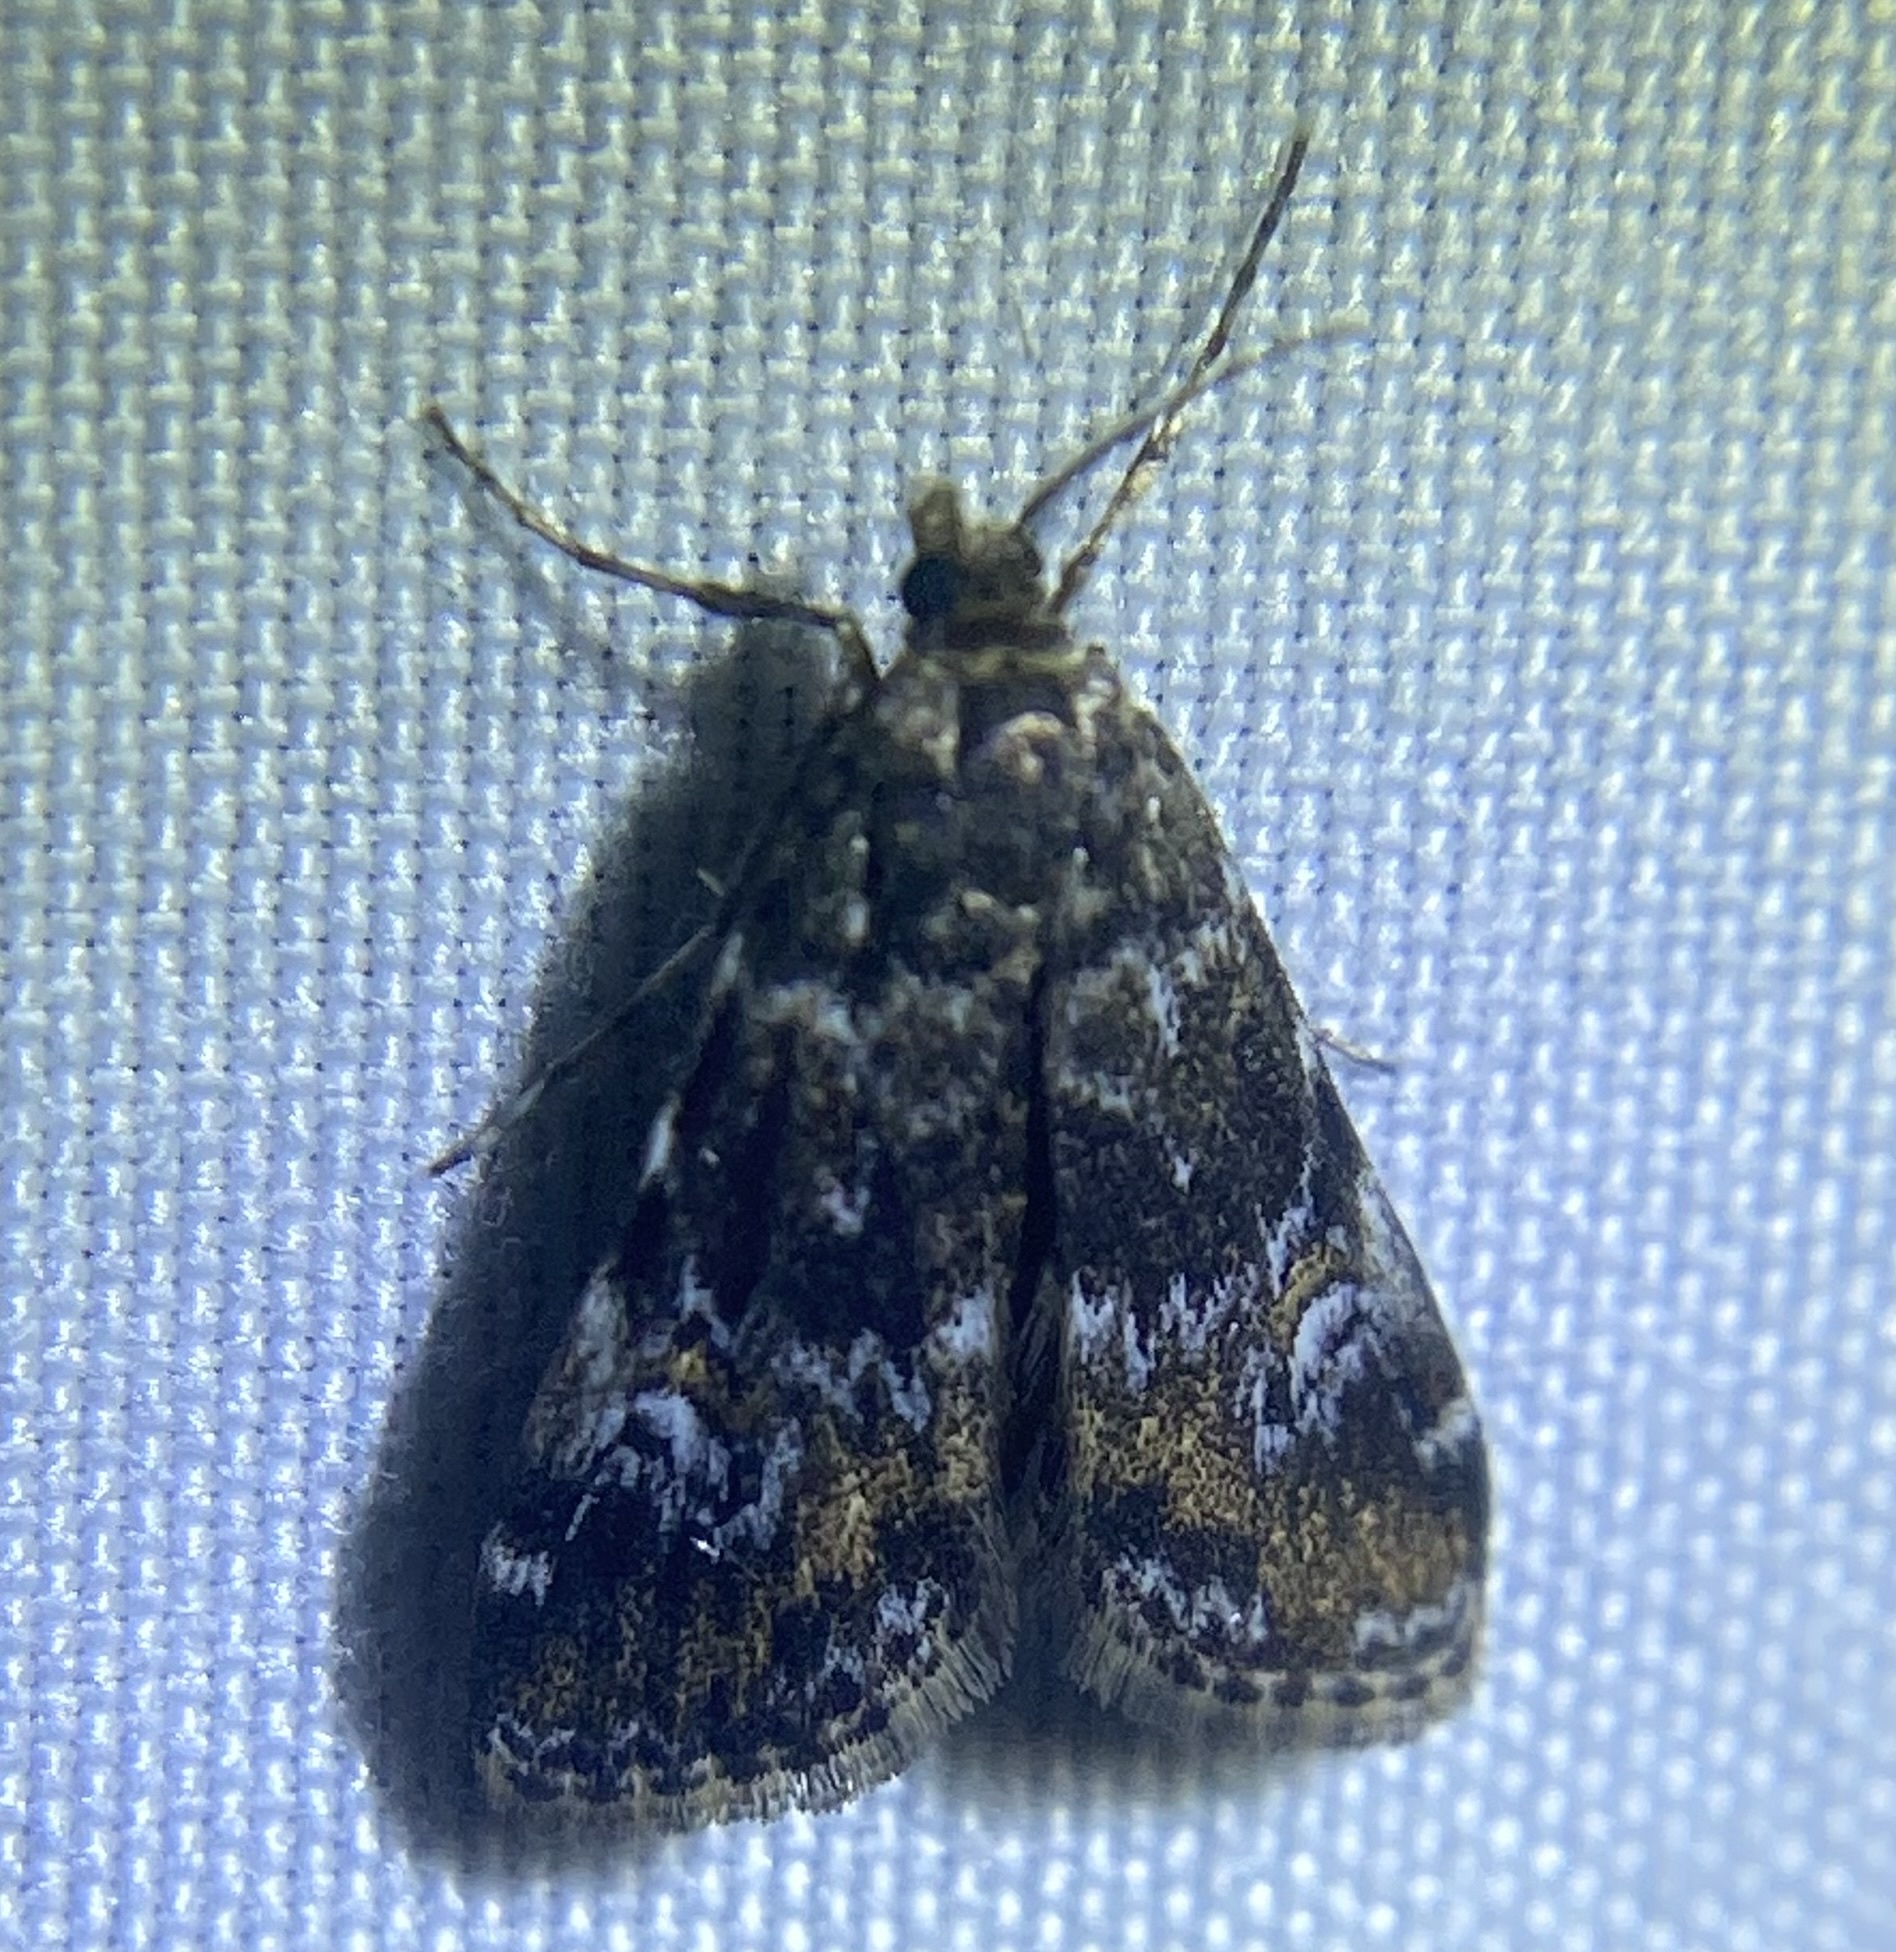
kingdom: Animalia
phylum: Arthropoda
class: Insecta
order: Lepidoptera
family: Crambidae
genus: Elophila
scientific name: Elophila obliteralis
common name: Waterlily leafcutter moth
